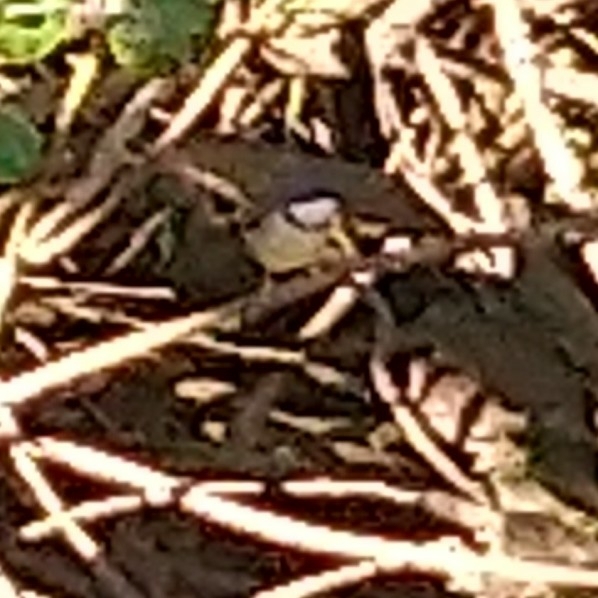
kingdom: Animalia
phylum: Chordata
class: Aves
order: Passeriformes
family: Cisticolidae
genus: Apalis
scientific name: Apalis thoracica
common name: Bar-throated apalis
